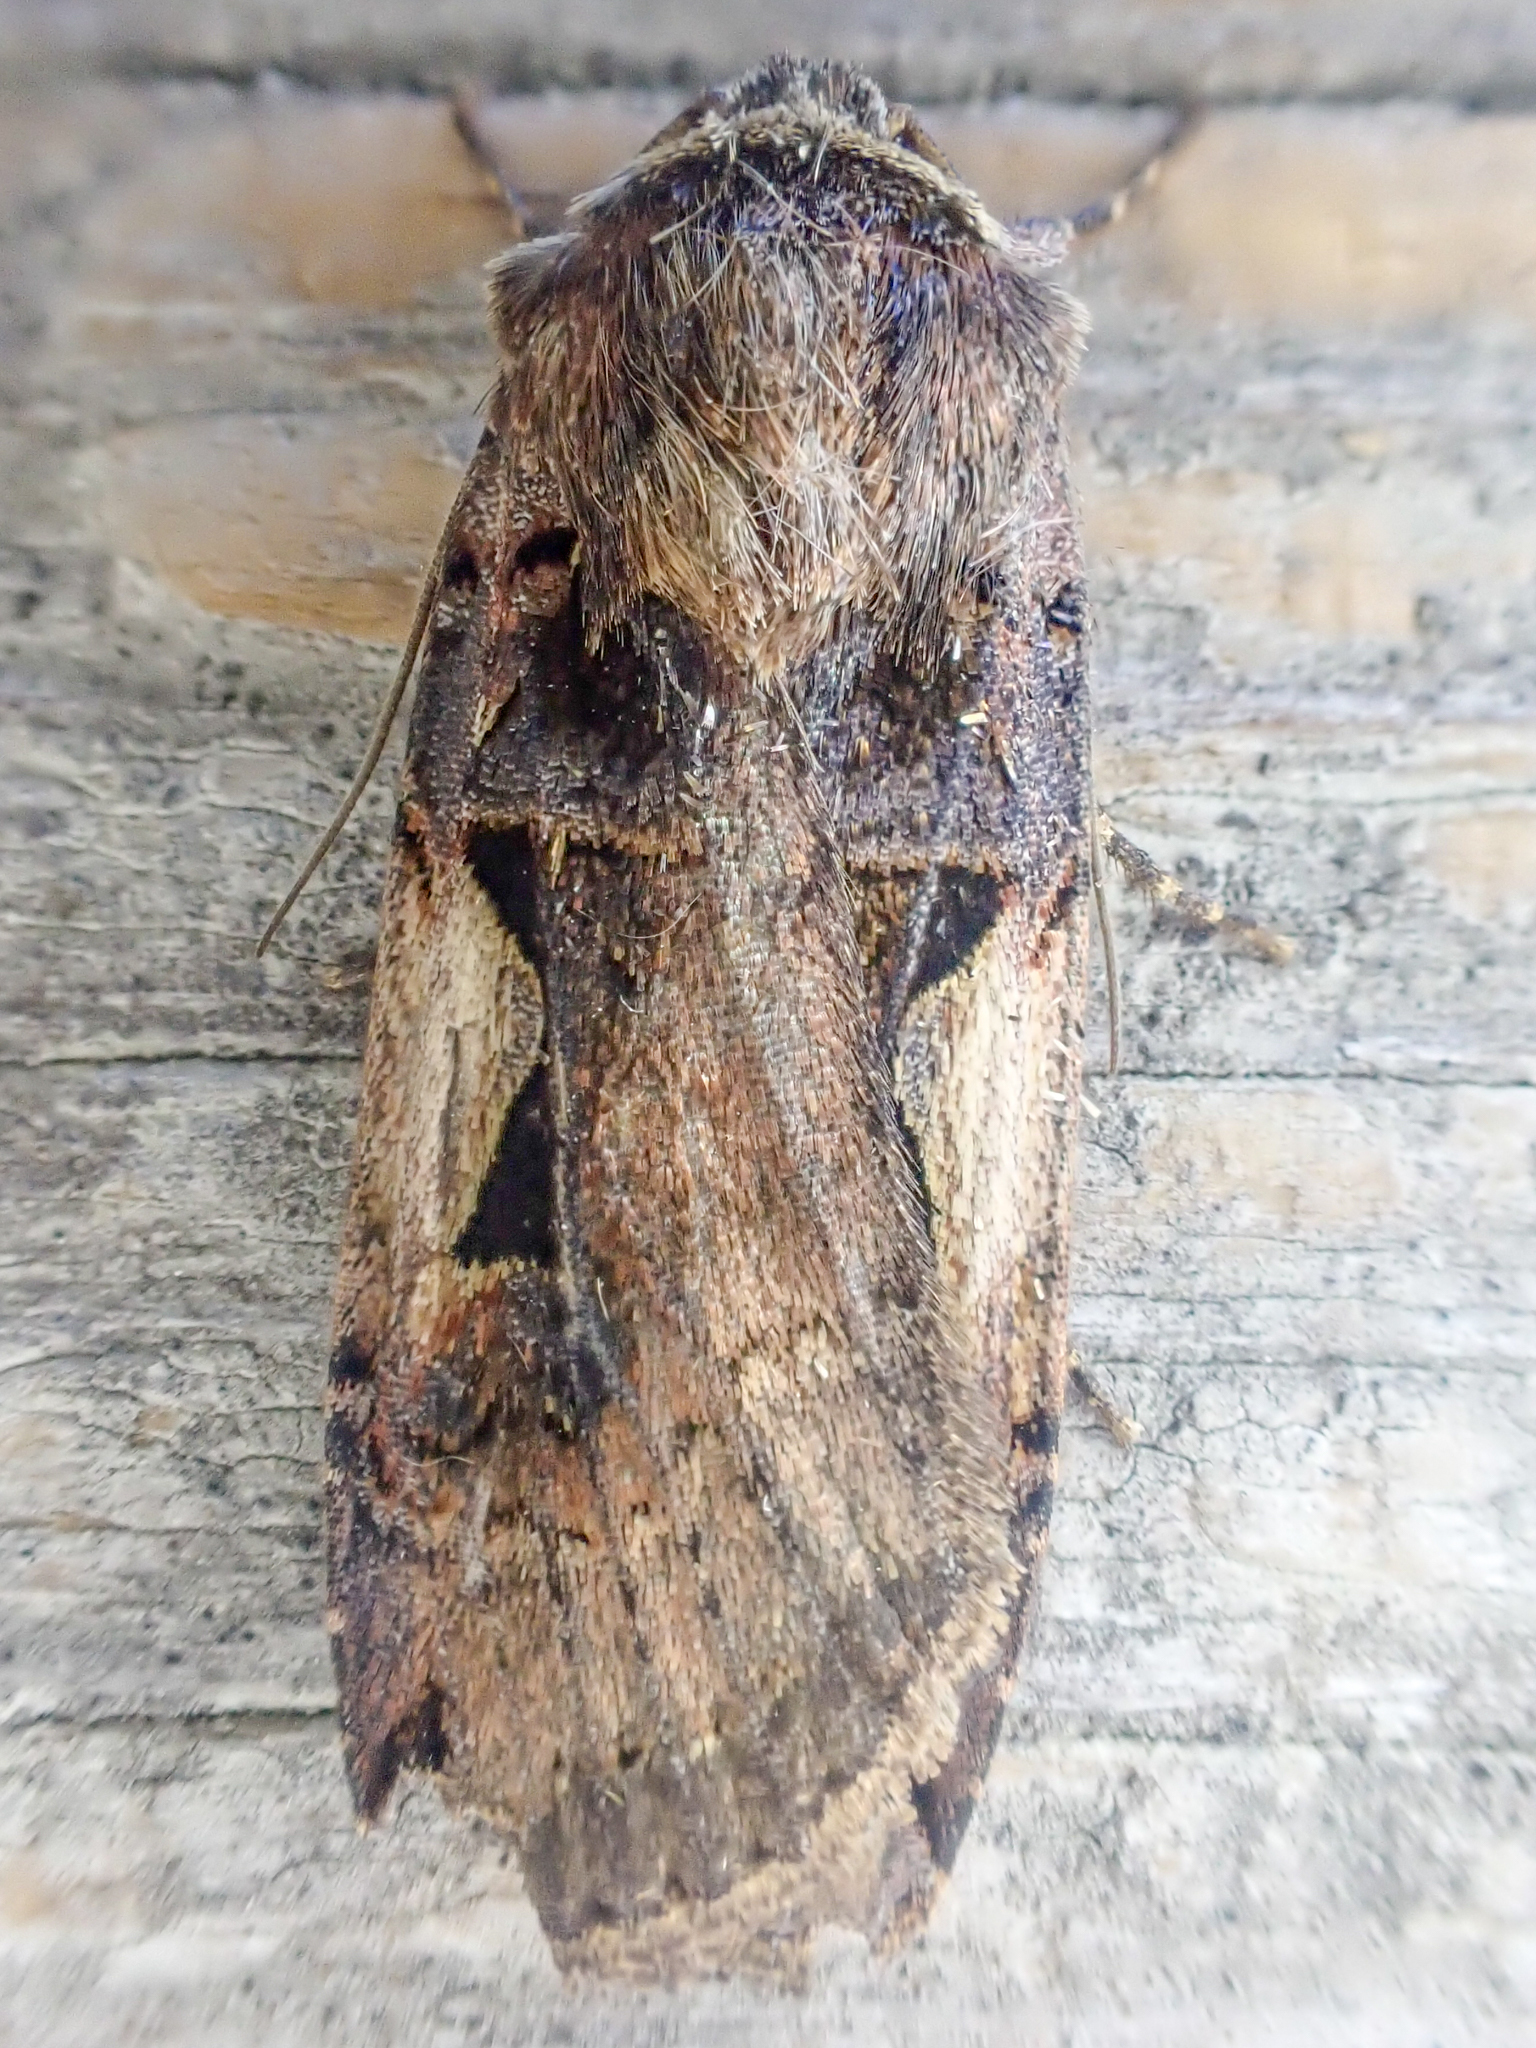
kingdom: Animalia
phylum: Arthropoda
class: Insecta
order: Lepidoptera
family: Noctuidae
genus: Xestia
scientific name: Xestia c-nigrum
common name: Setaceous hebrew character
